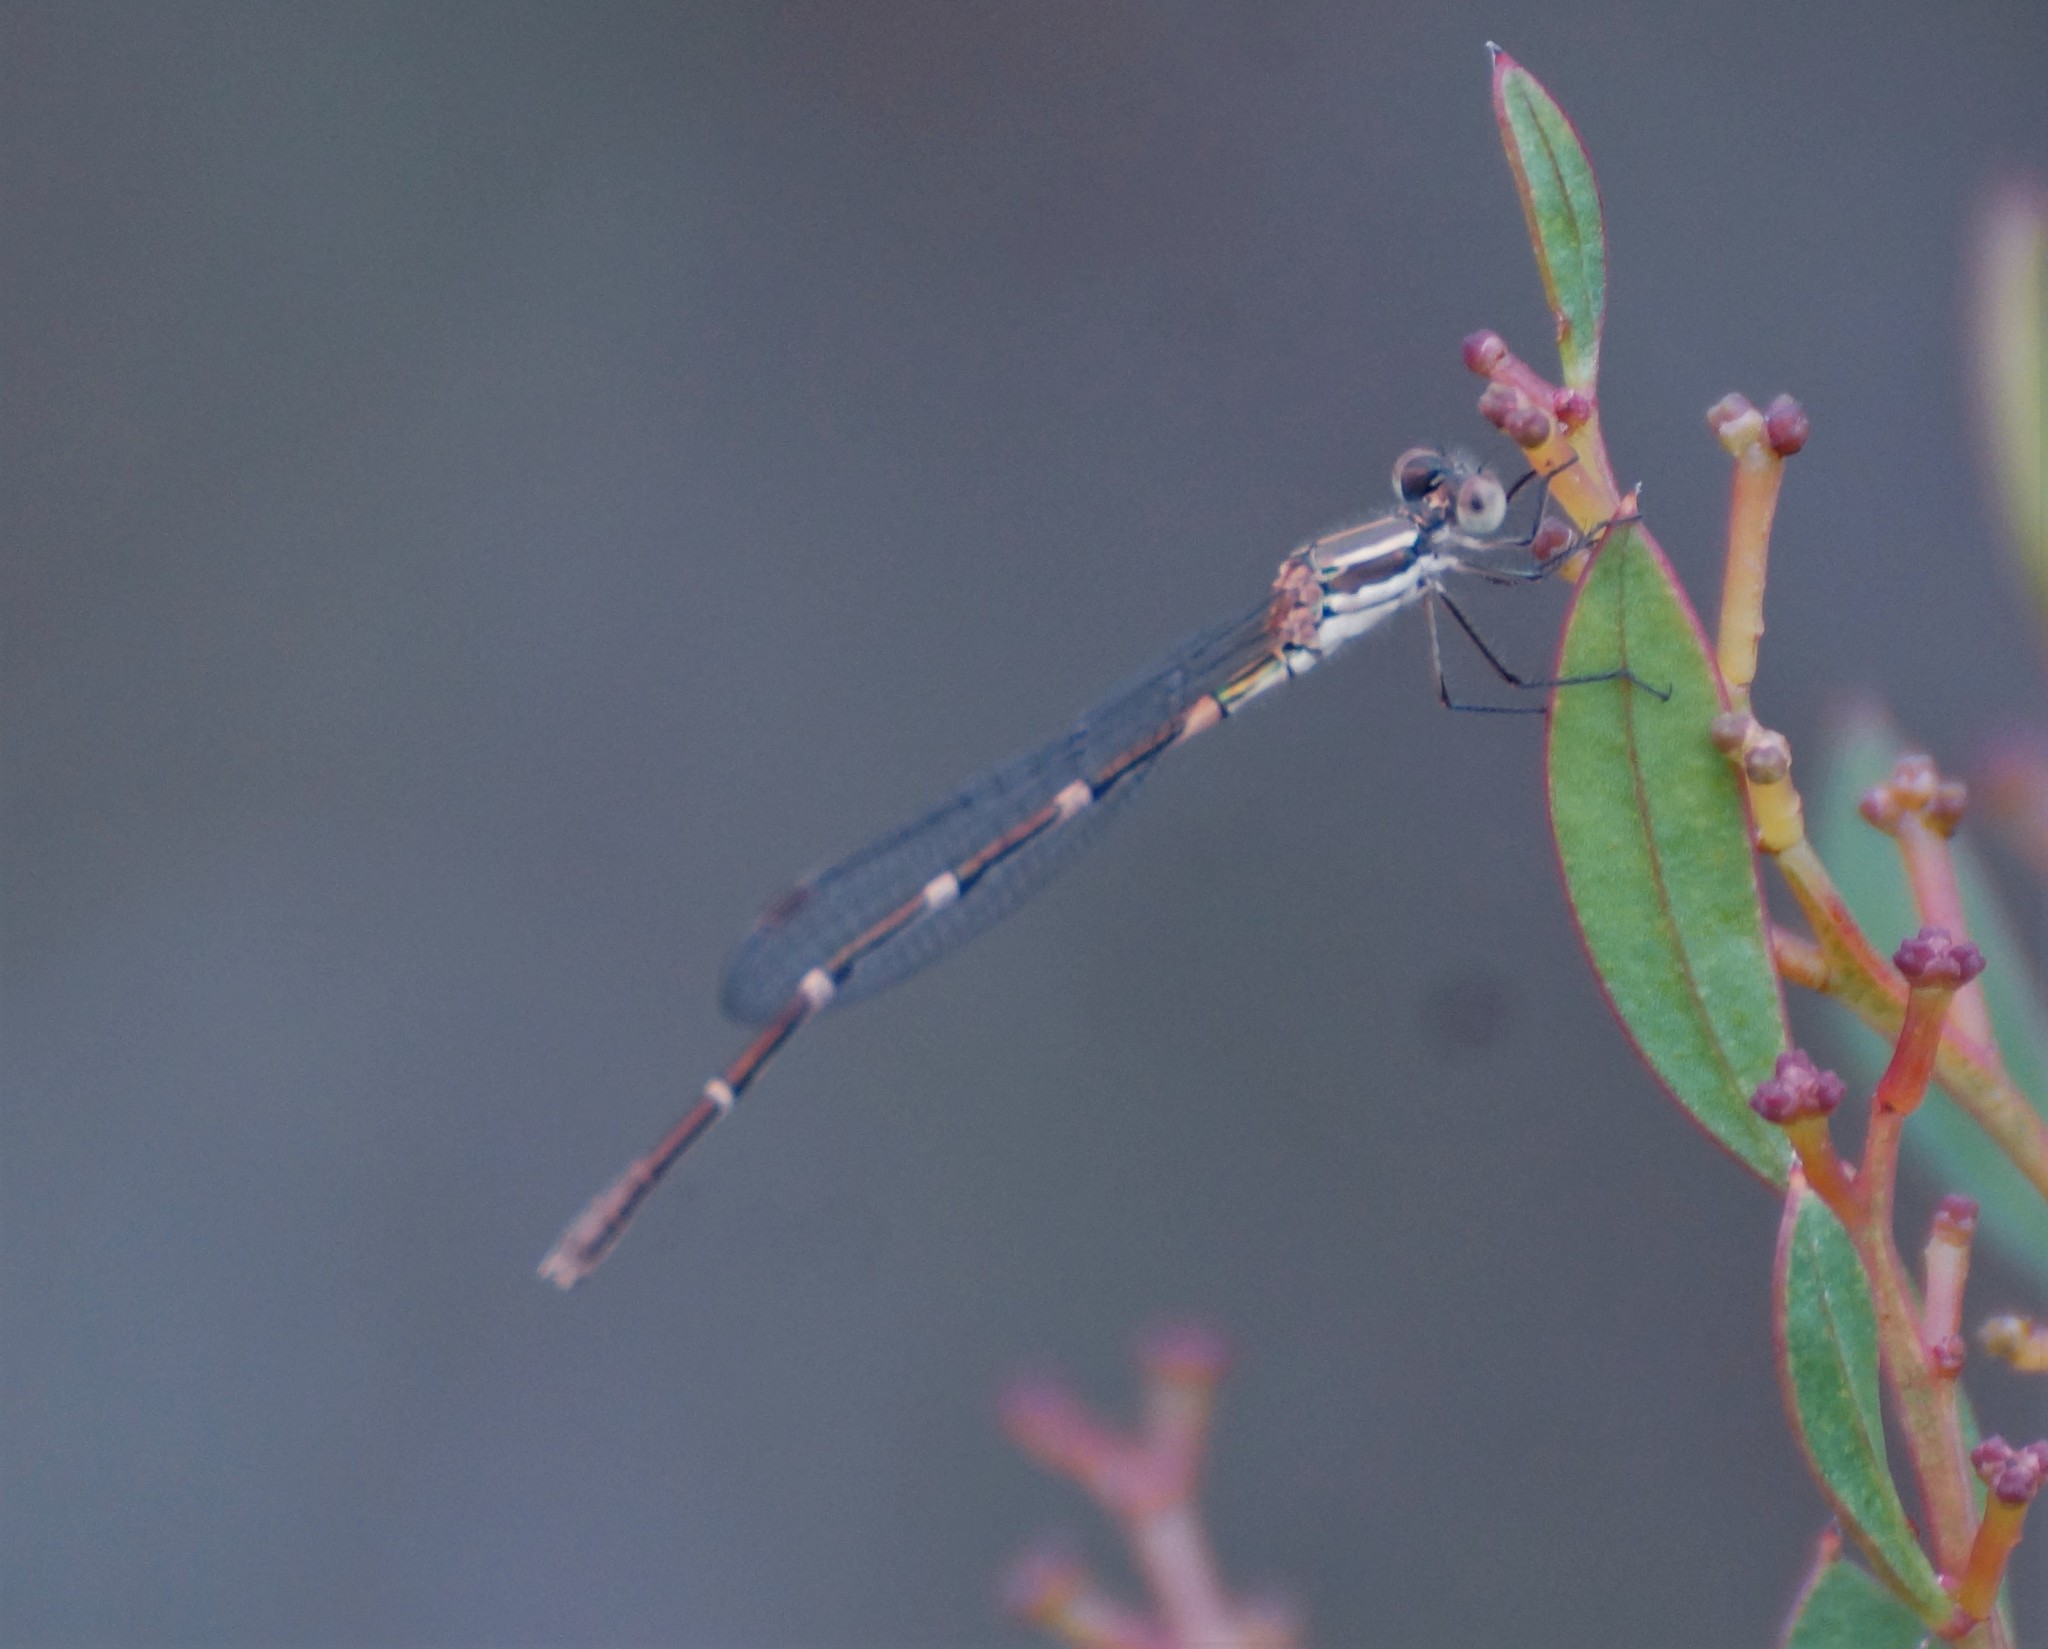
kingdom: Animalia
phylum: Arthropoda
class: Insecta
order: Odonata
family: Lestidae
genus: Austrolestes
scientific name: Austrolestes leda
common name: Wandering ringtail
